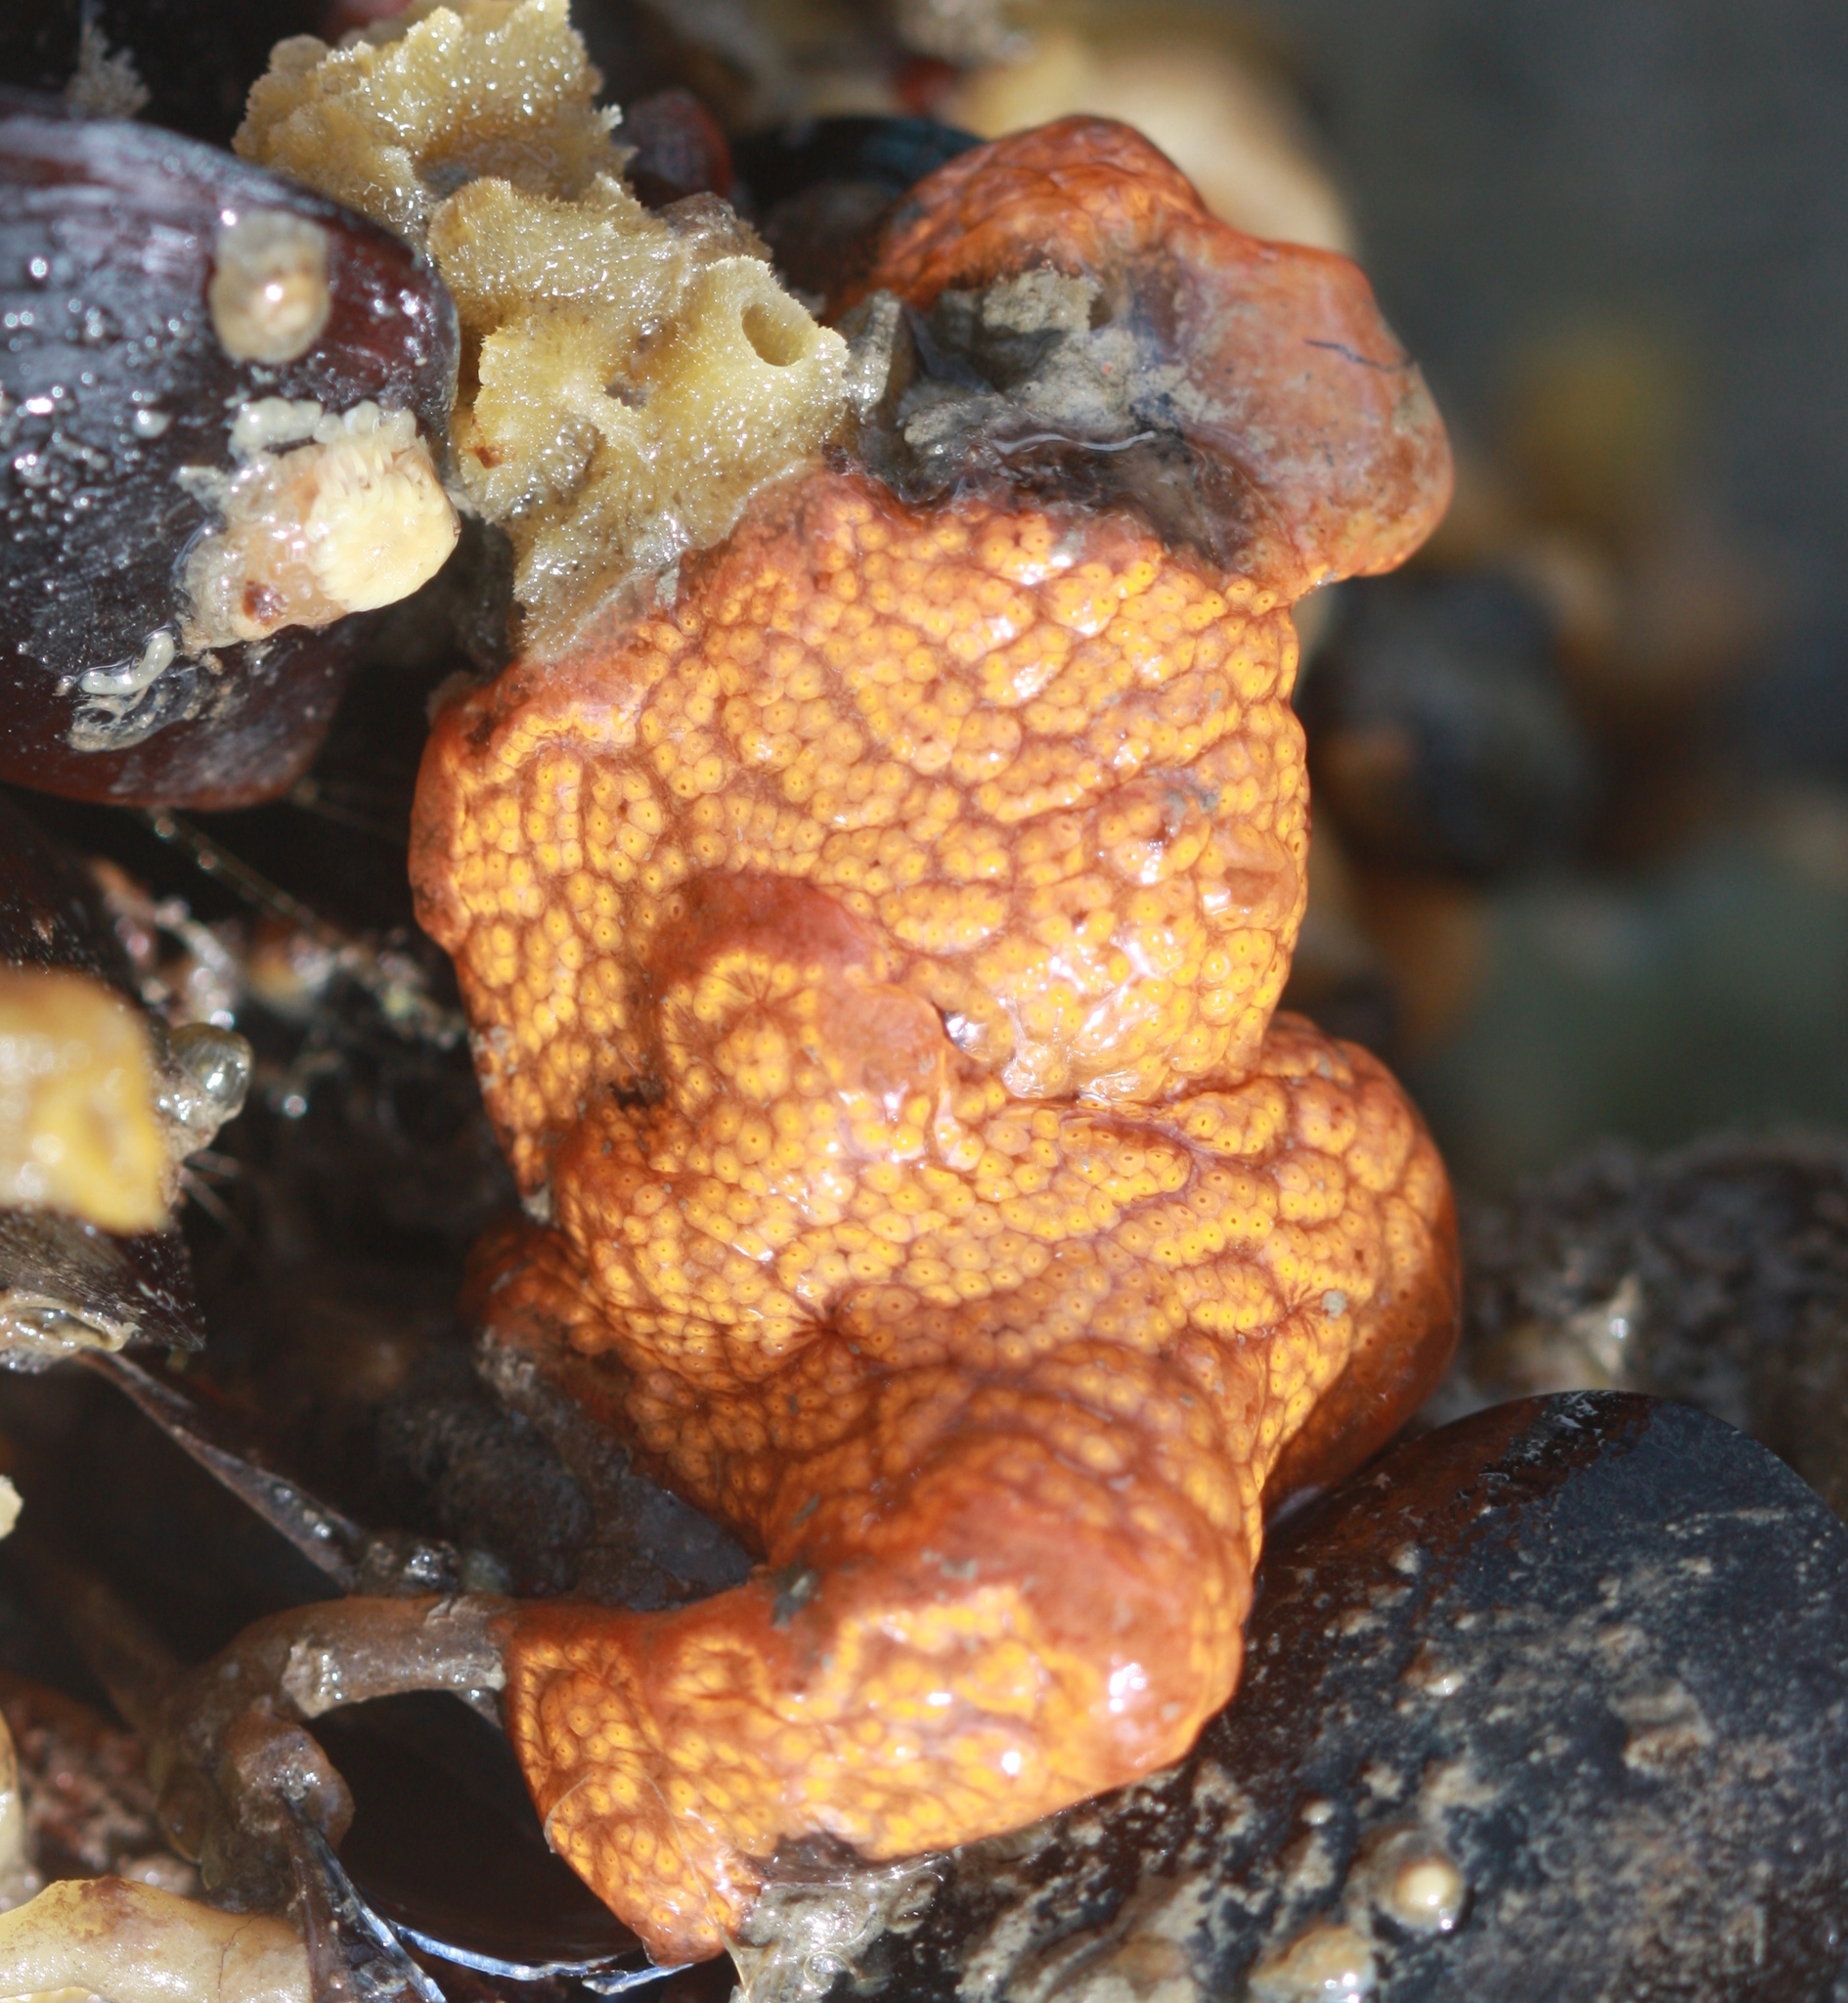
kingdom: Animalia
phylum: Chordata
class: Ascidiacea
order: Stolidobranchia
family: Styelidae
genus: Botrylloides
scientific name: Botrylloides diegensis
